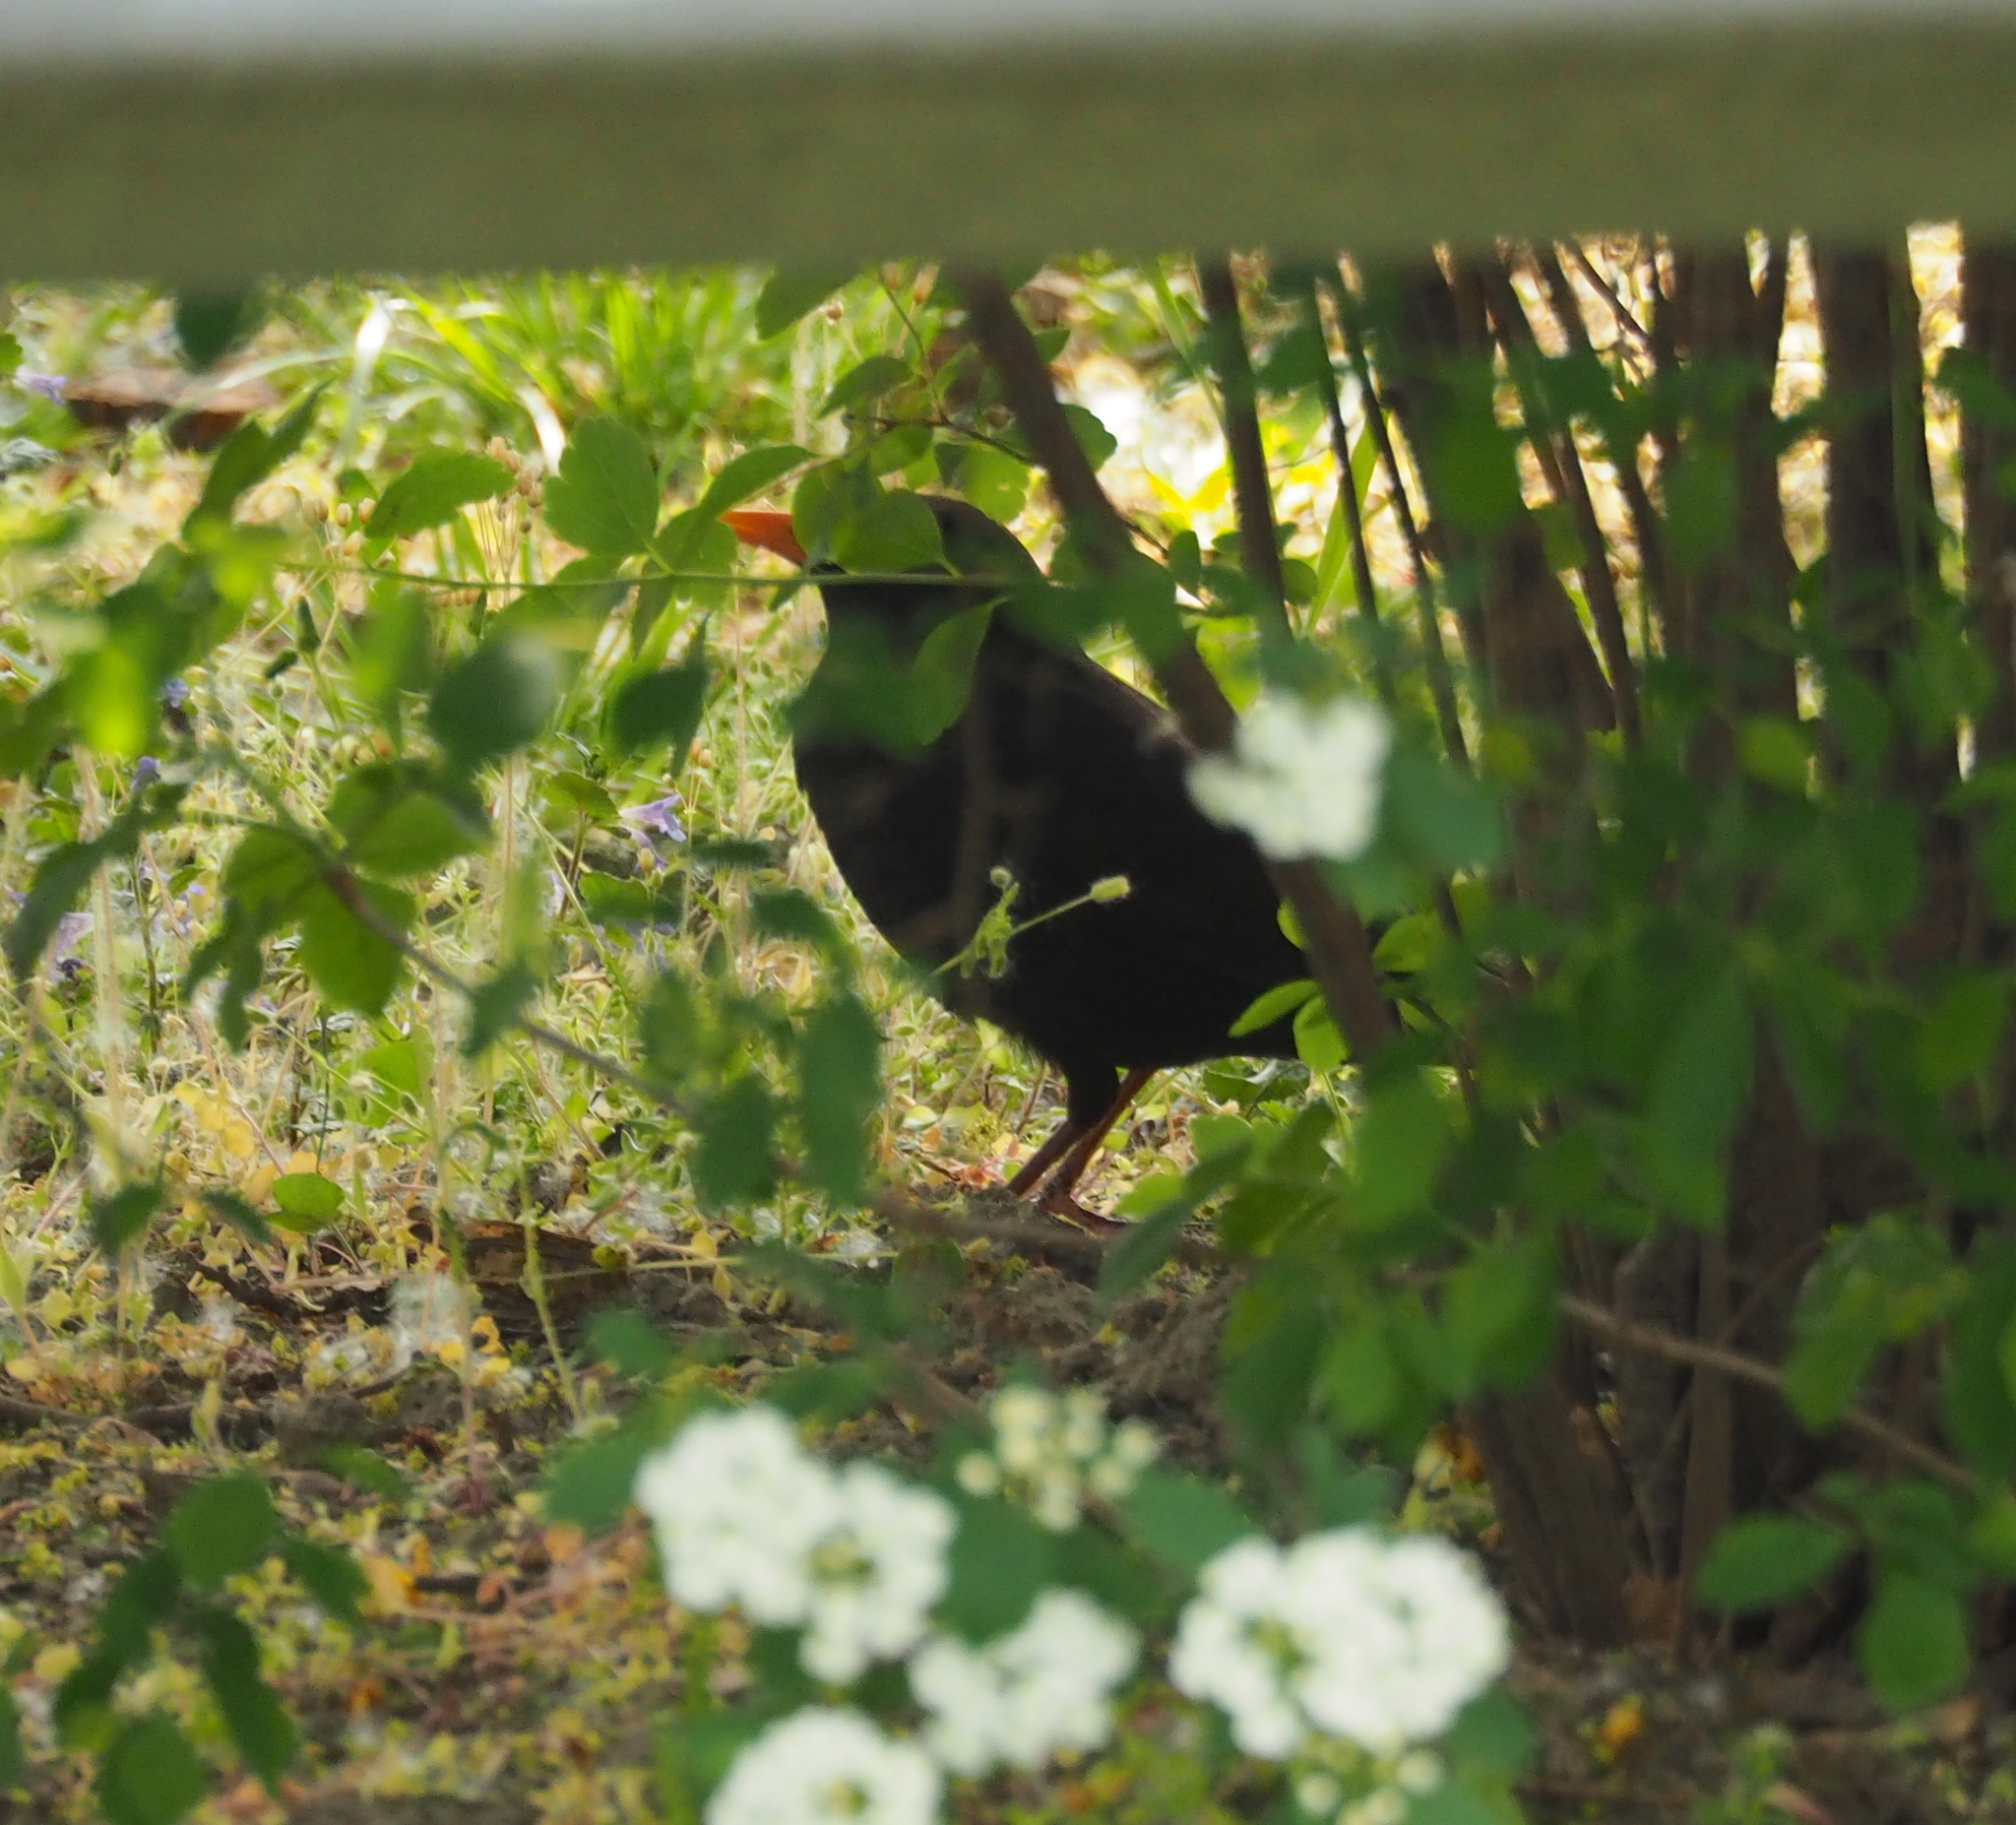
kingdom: Animalia
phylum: Chordata
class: Aves
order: Passeriformes
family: Turdidae
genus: Turdus
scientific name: Turdus merula
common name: Common blackbird
